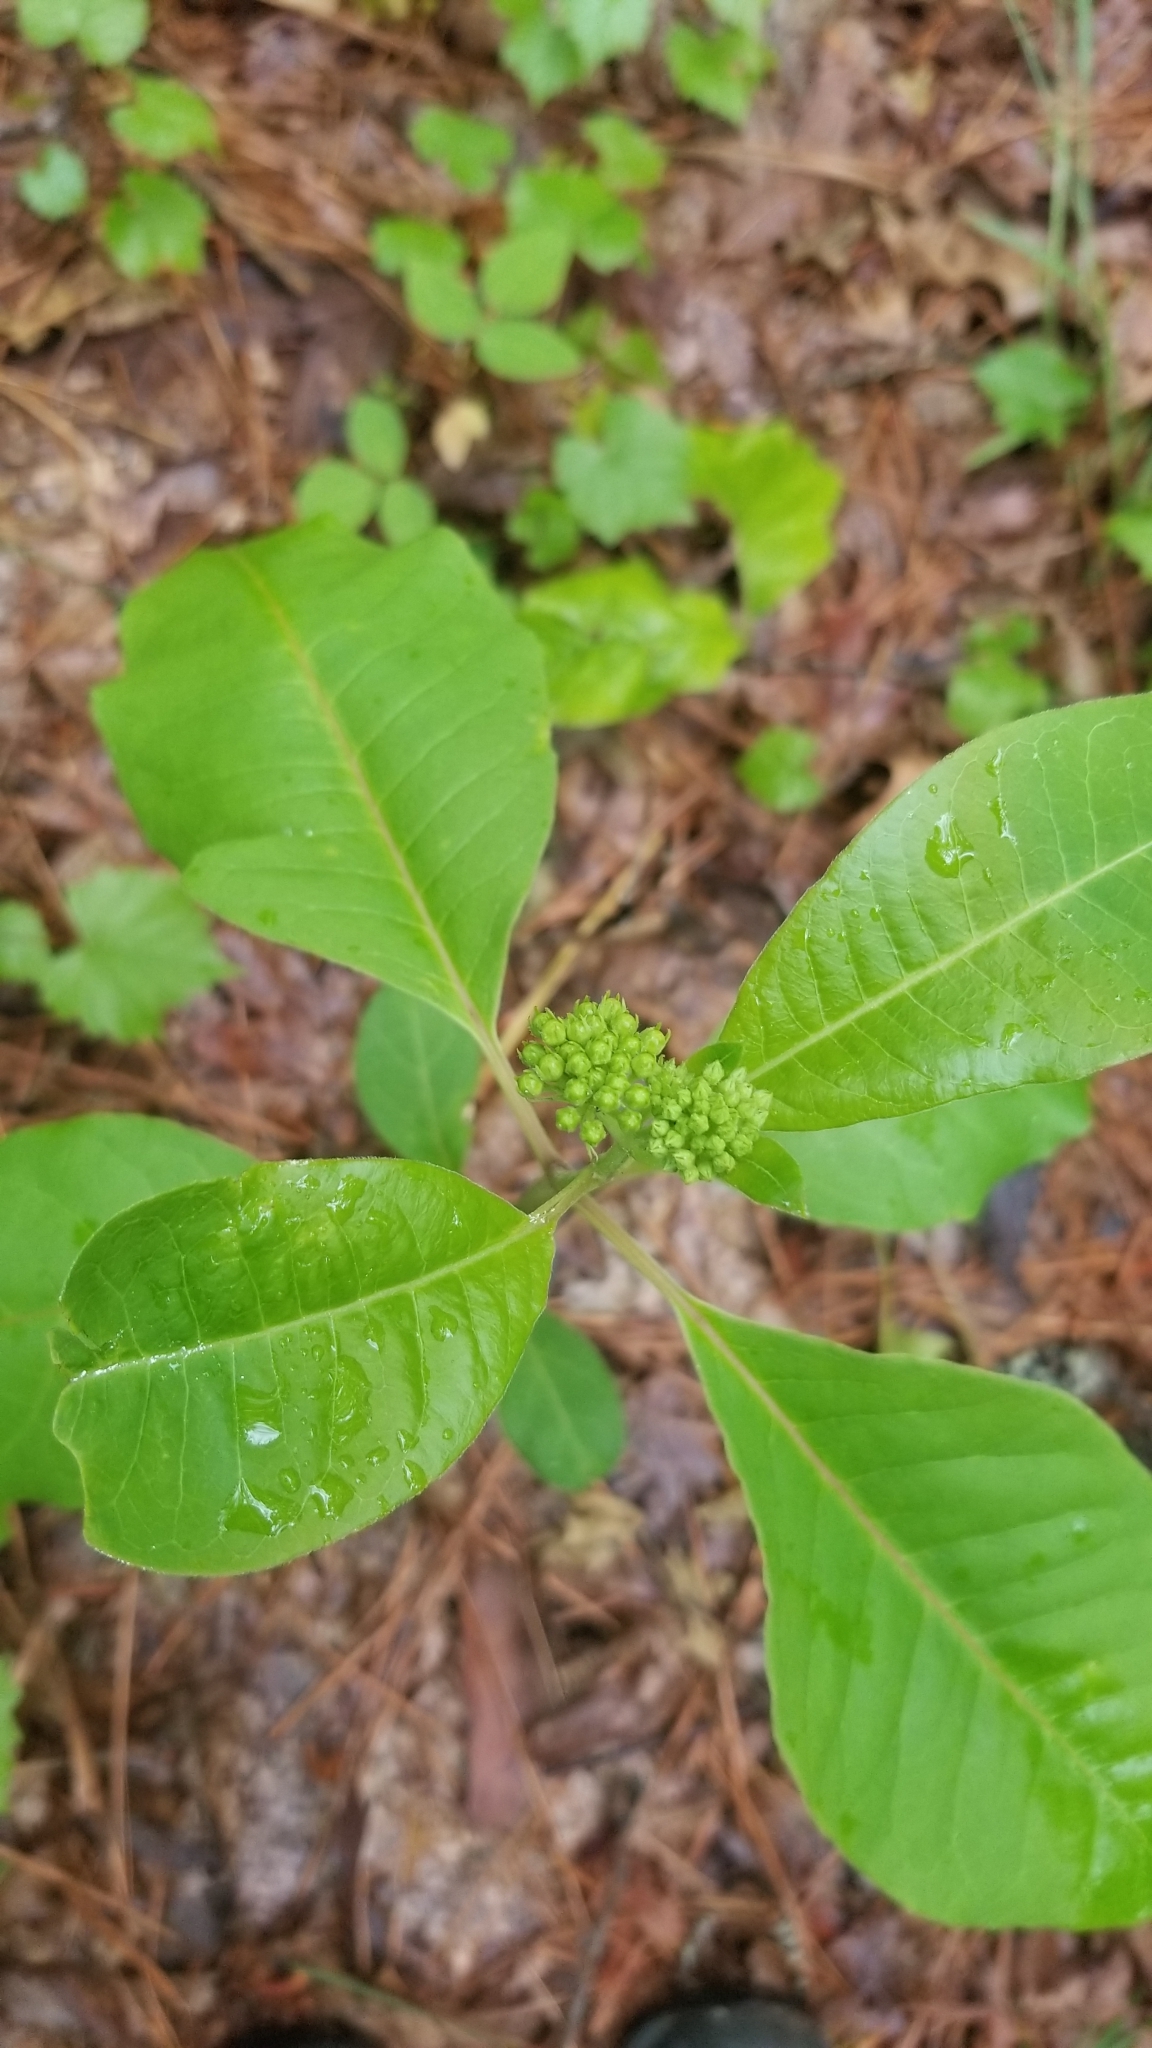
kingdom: Plantae
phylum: Tracheophyta
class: Magnoliopsida
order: Gentianales
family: Apocynaceae
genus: Asclepias
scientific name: Asclepias variegata
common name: Variegated milkweed
